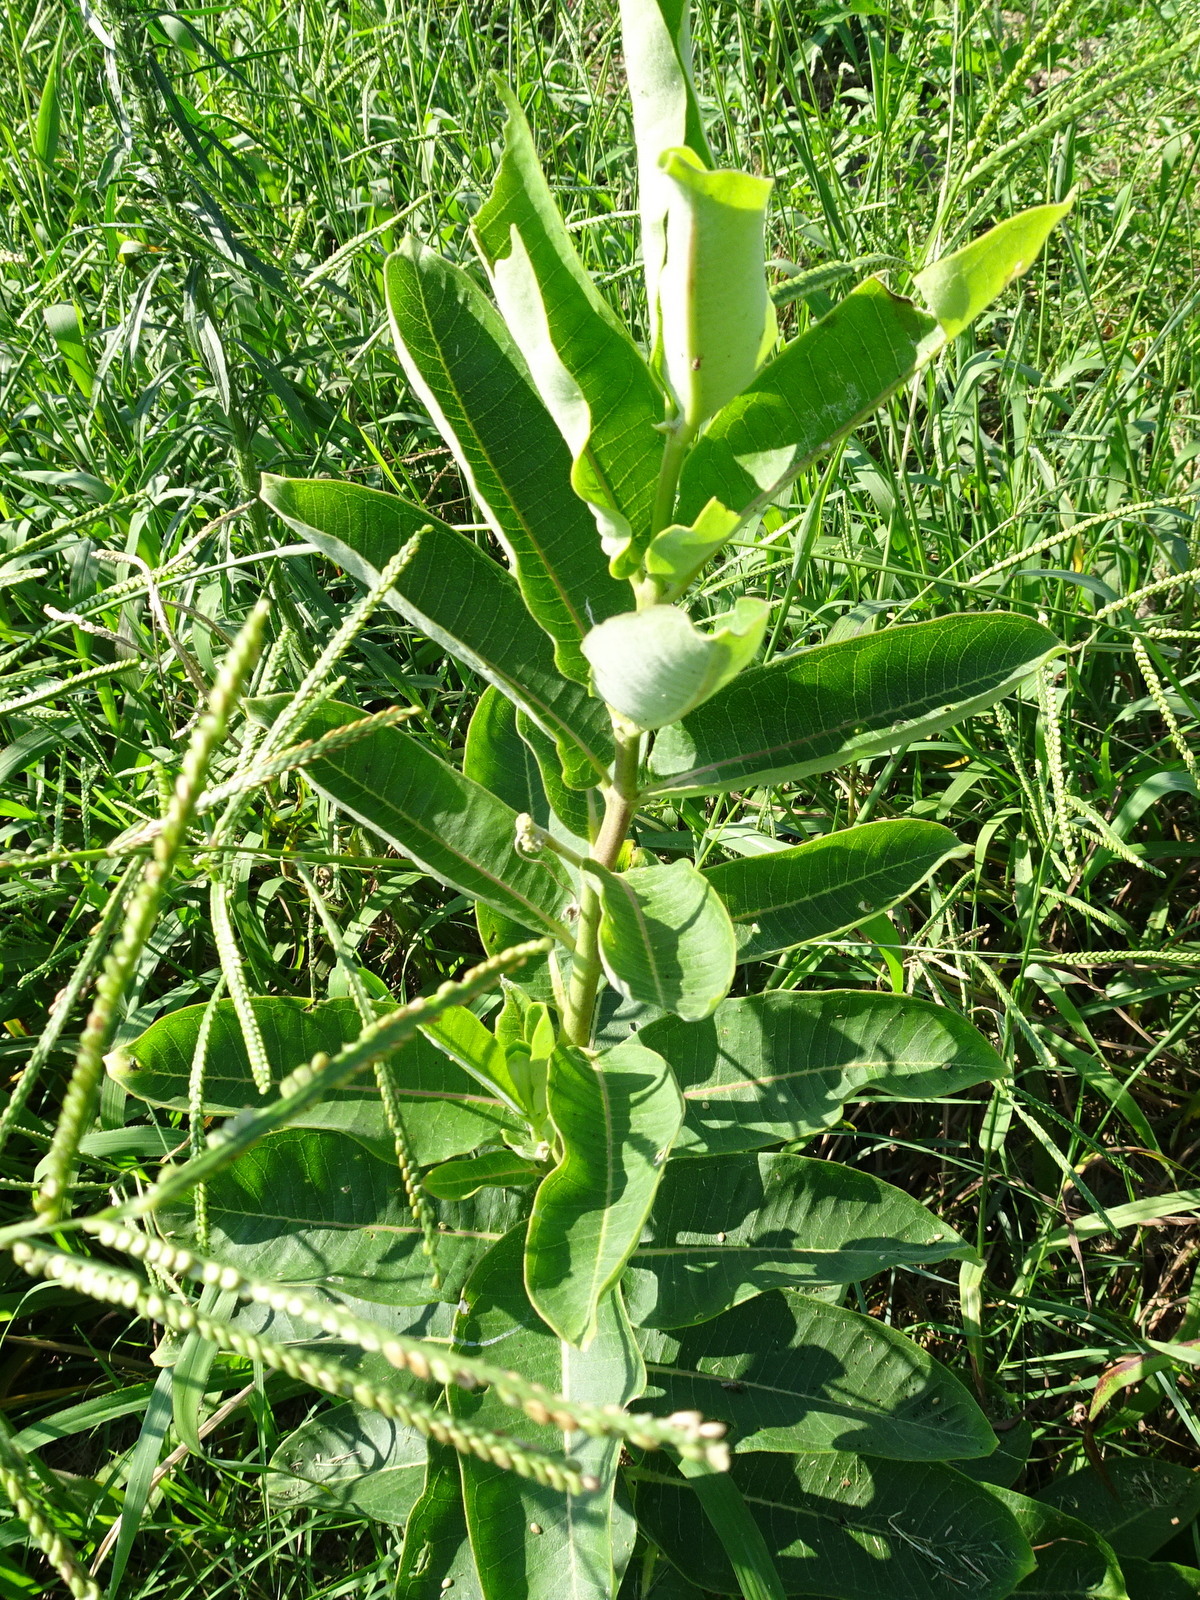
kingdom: Plantae
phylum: Tracheophyta
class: Magnoliopsida
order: Gentianales
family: Apocynaceae
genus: Asclepias
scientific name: Asclepias syriaca
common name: Common milkweed
